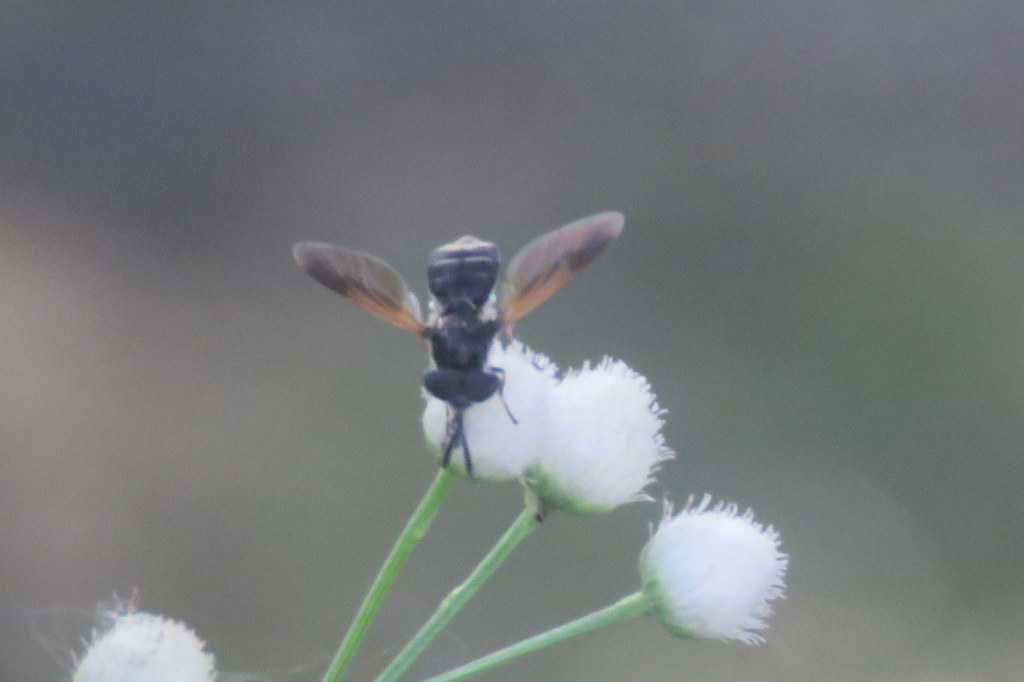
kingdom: Animalia
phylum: Arthropoda
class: Insecta
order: Diptera
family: Stratiomyidae
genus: Hoplitimyia
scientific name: Hoplitimyia
